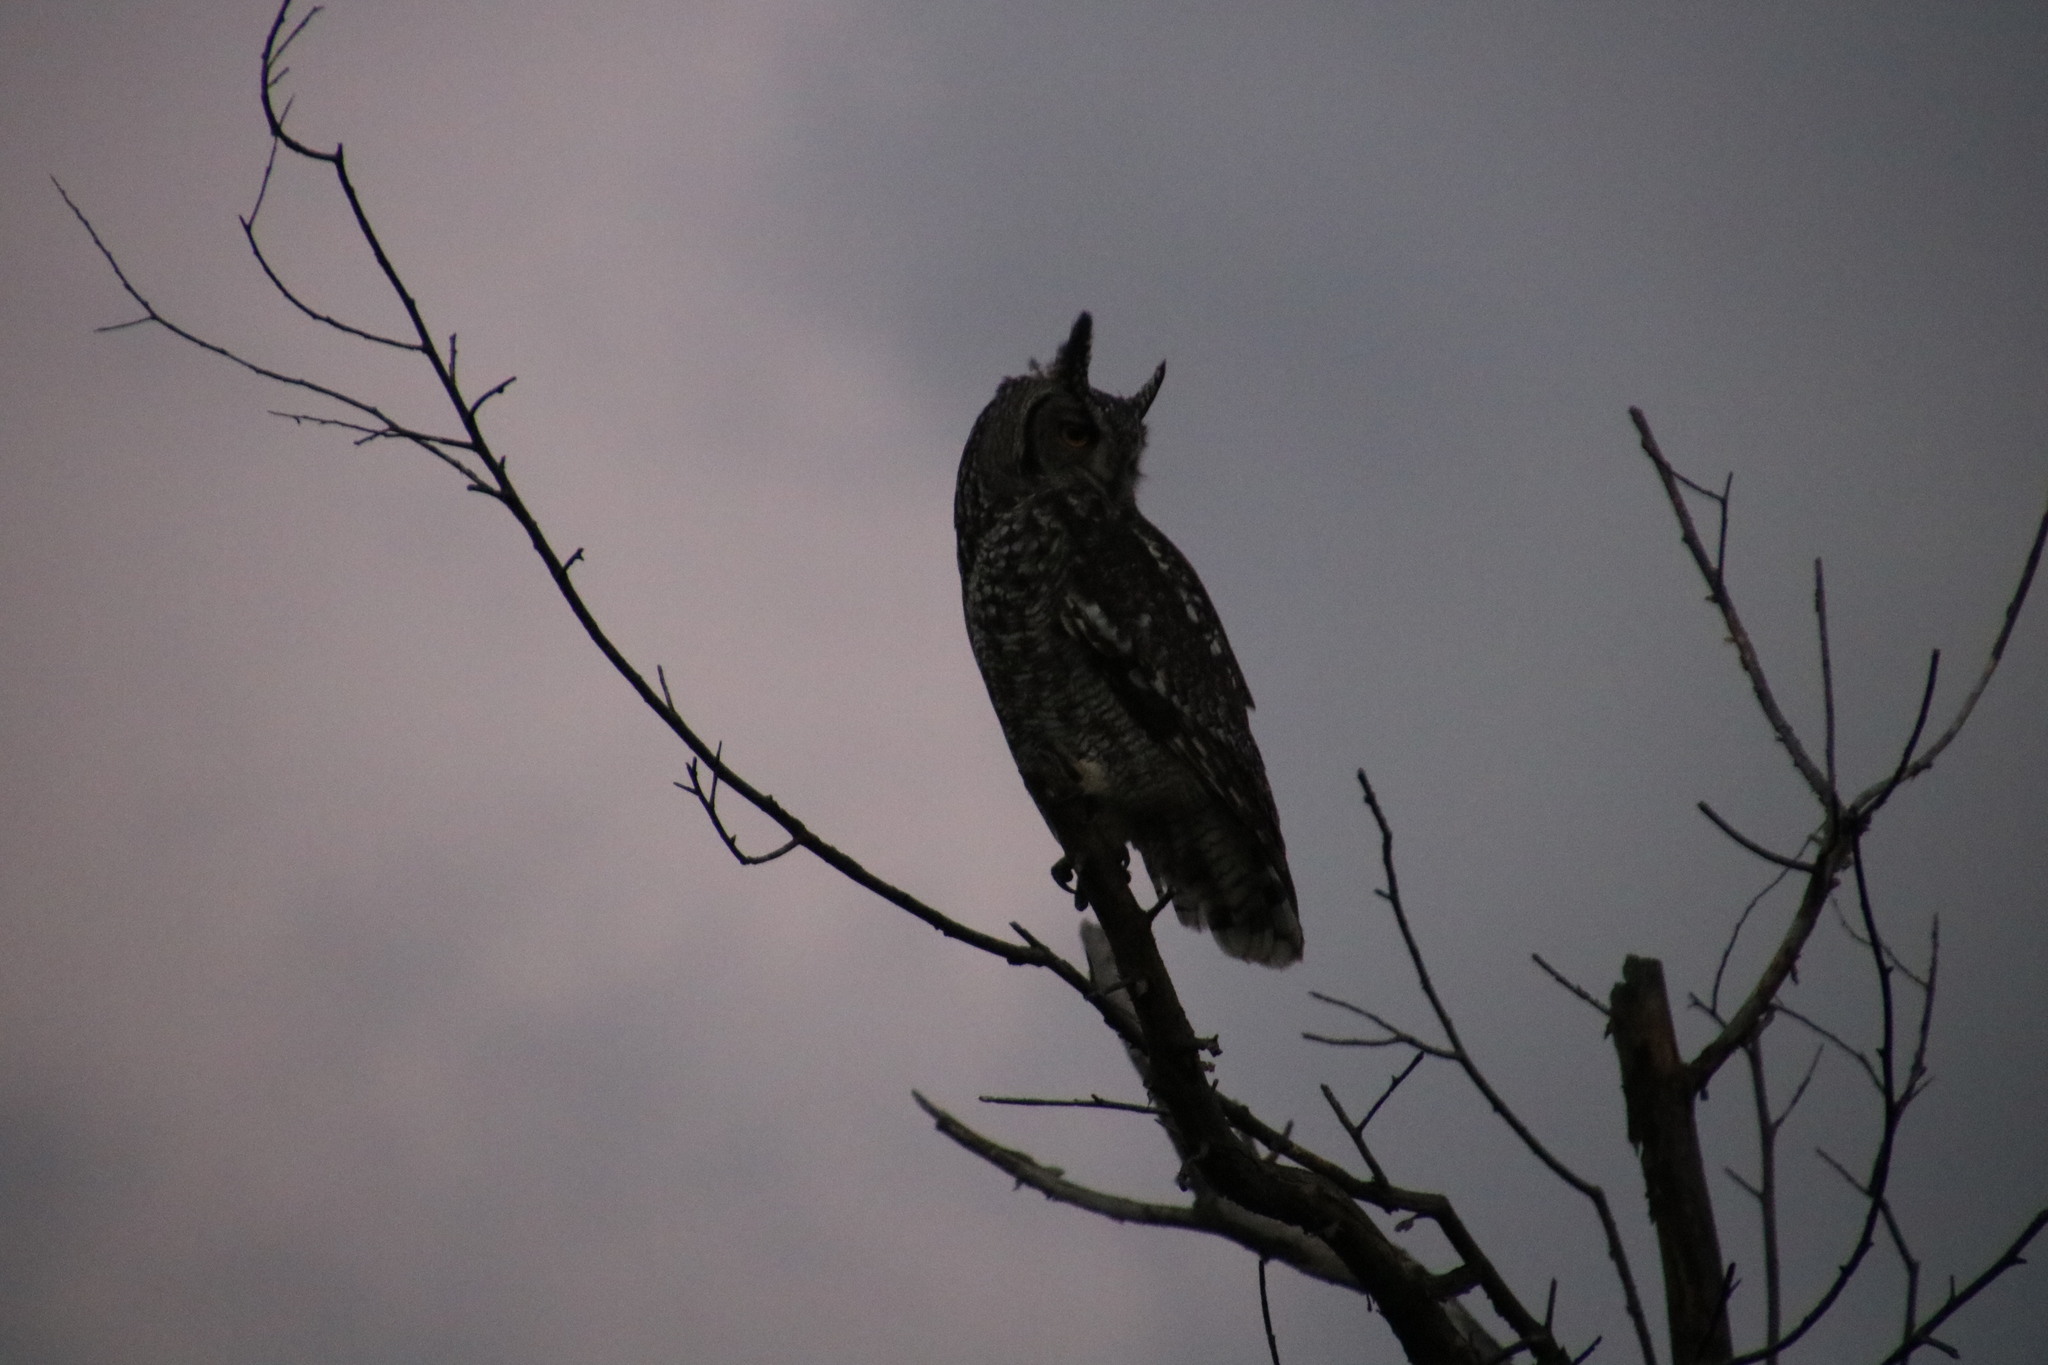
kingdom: Animalia
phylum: Chordata
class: Aves
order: Strigiformes
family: Strigidae
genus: Bubo
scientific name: Bubo africanus
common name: Spotted eagle-owl
